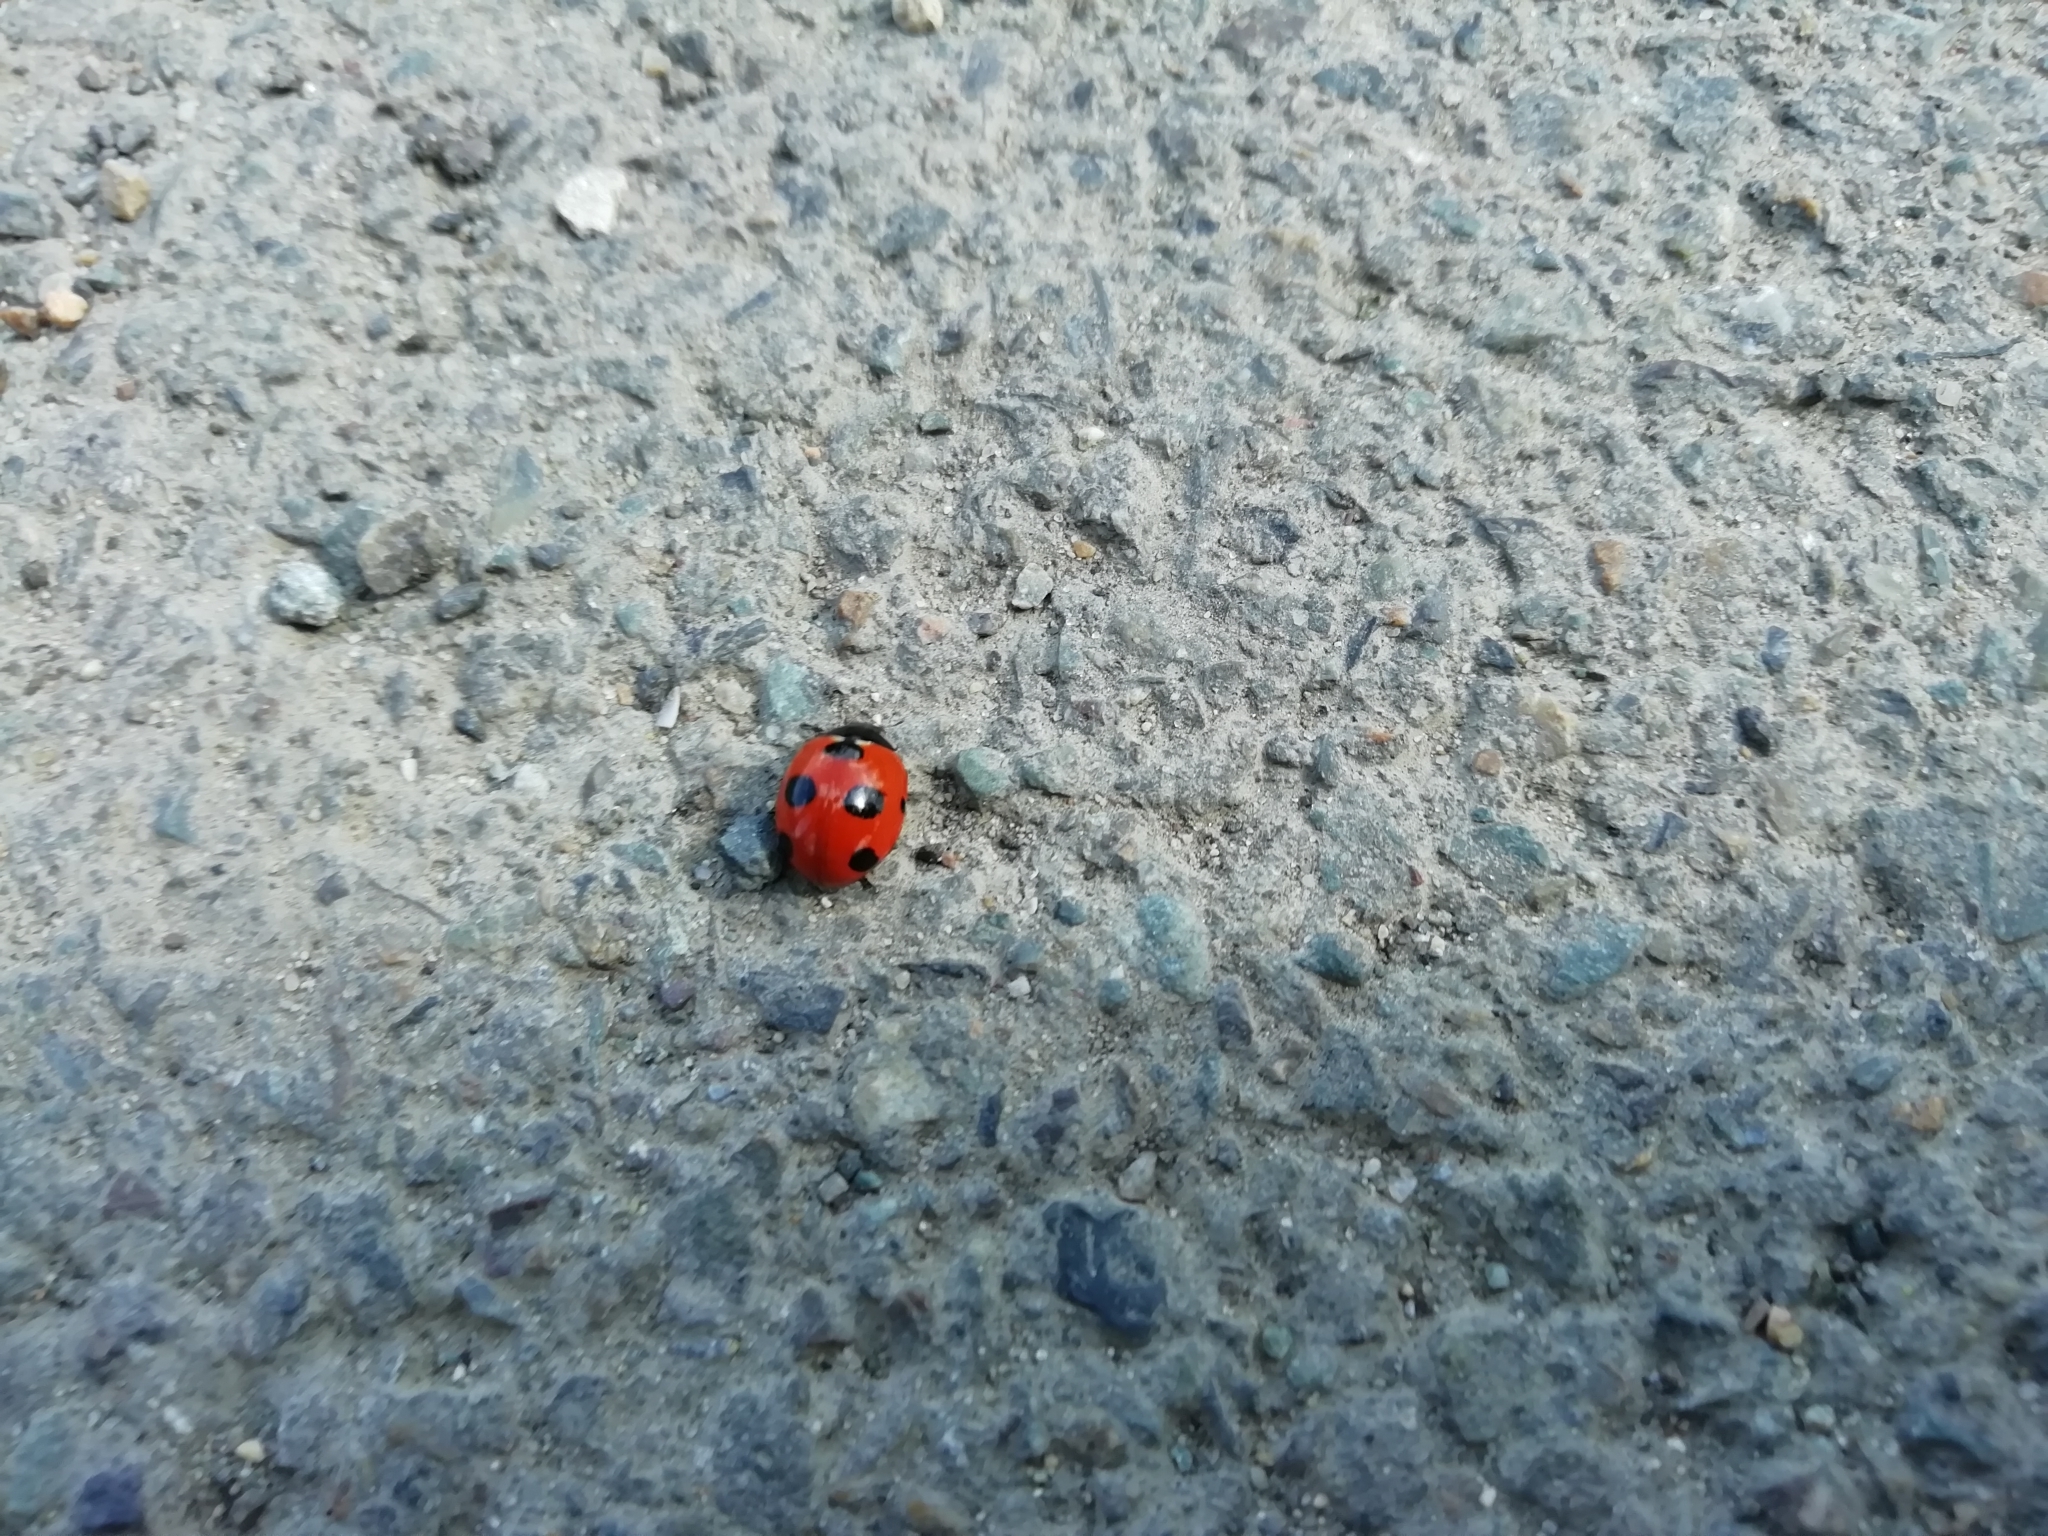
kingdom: Animalia
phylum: Arthropoda
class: Insecta
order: Coleoptera
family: Coccinellidae
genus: Coccinella
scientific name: Coccinella magnifica
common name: Scarce 7-spot ladybird
